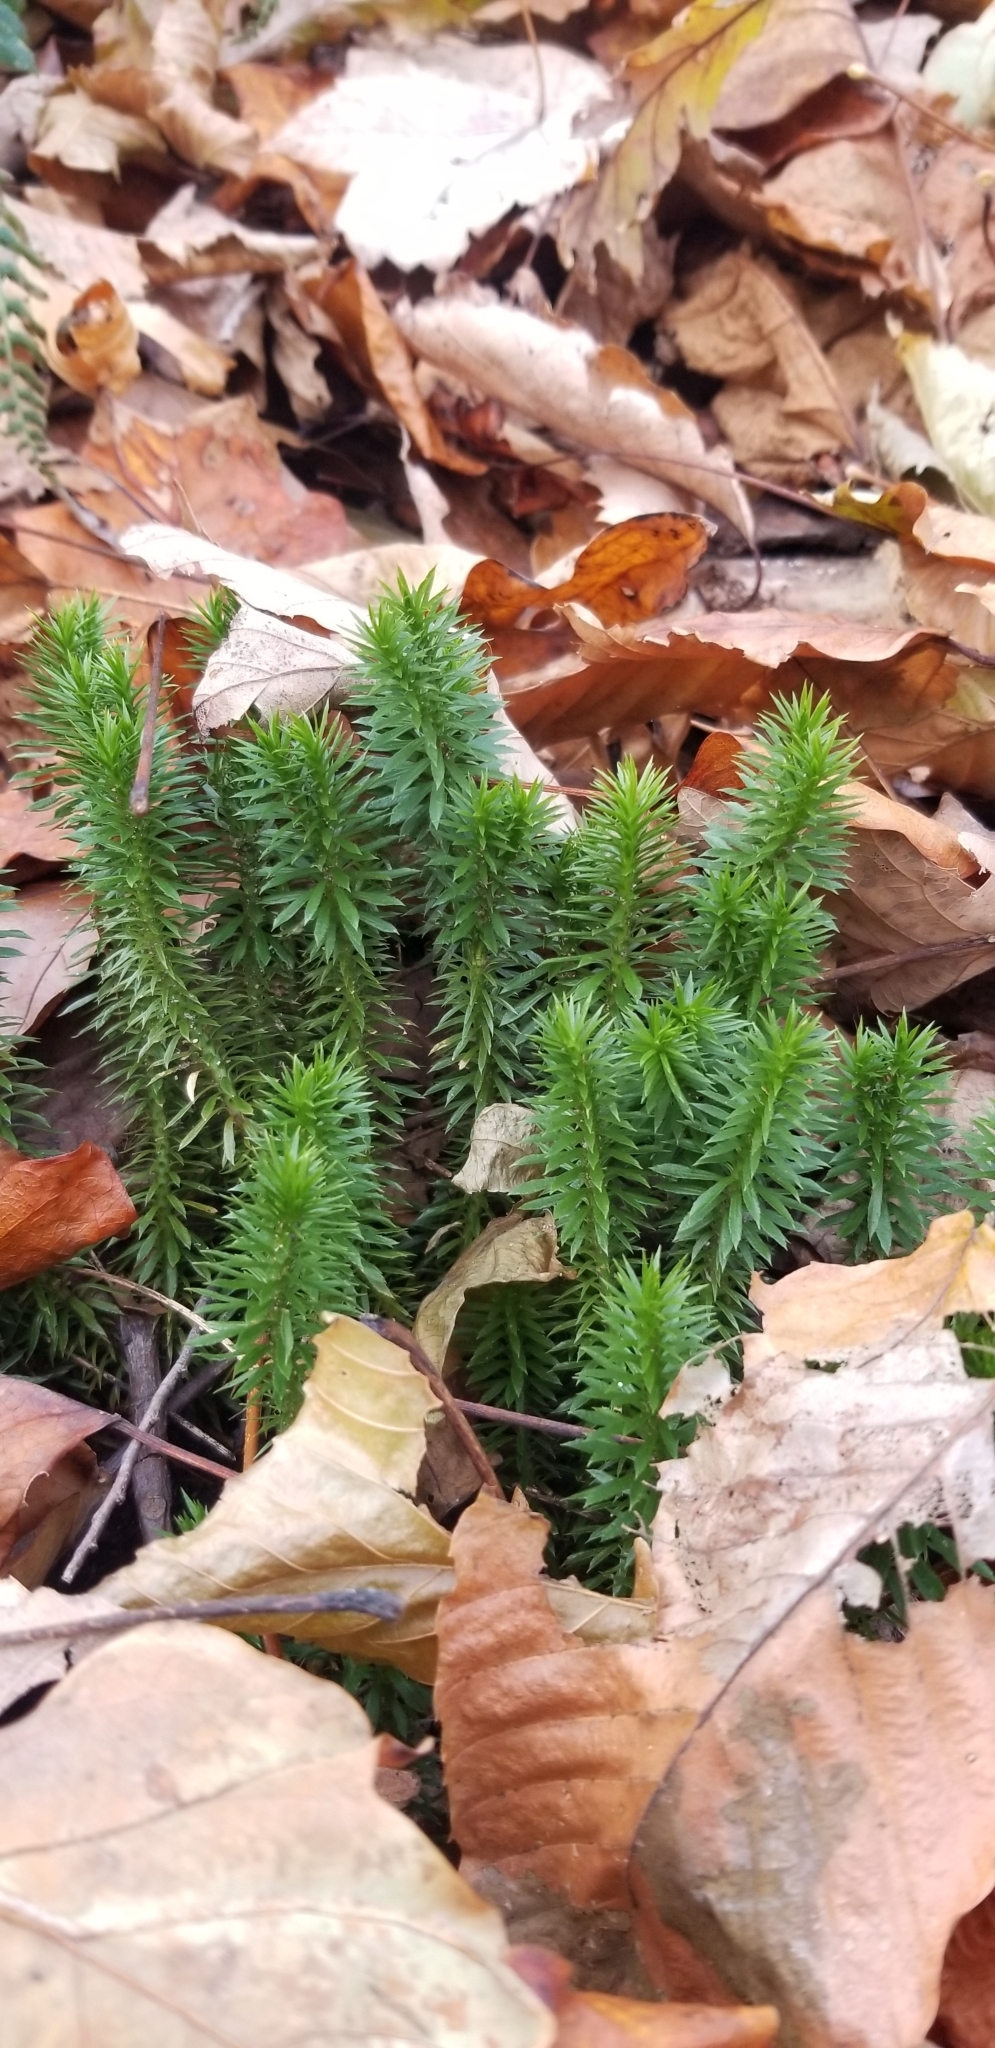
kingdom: Plantae
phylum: Tracheophyta
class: Lycopodiopsida
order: Lycopodiales
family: Lycopodiaceae
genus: Huperzia
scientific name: Huperzia lucidula
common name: Shining clubmoss
